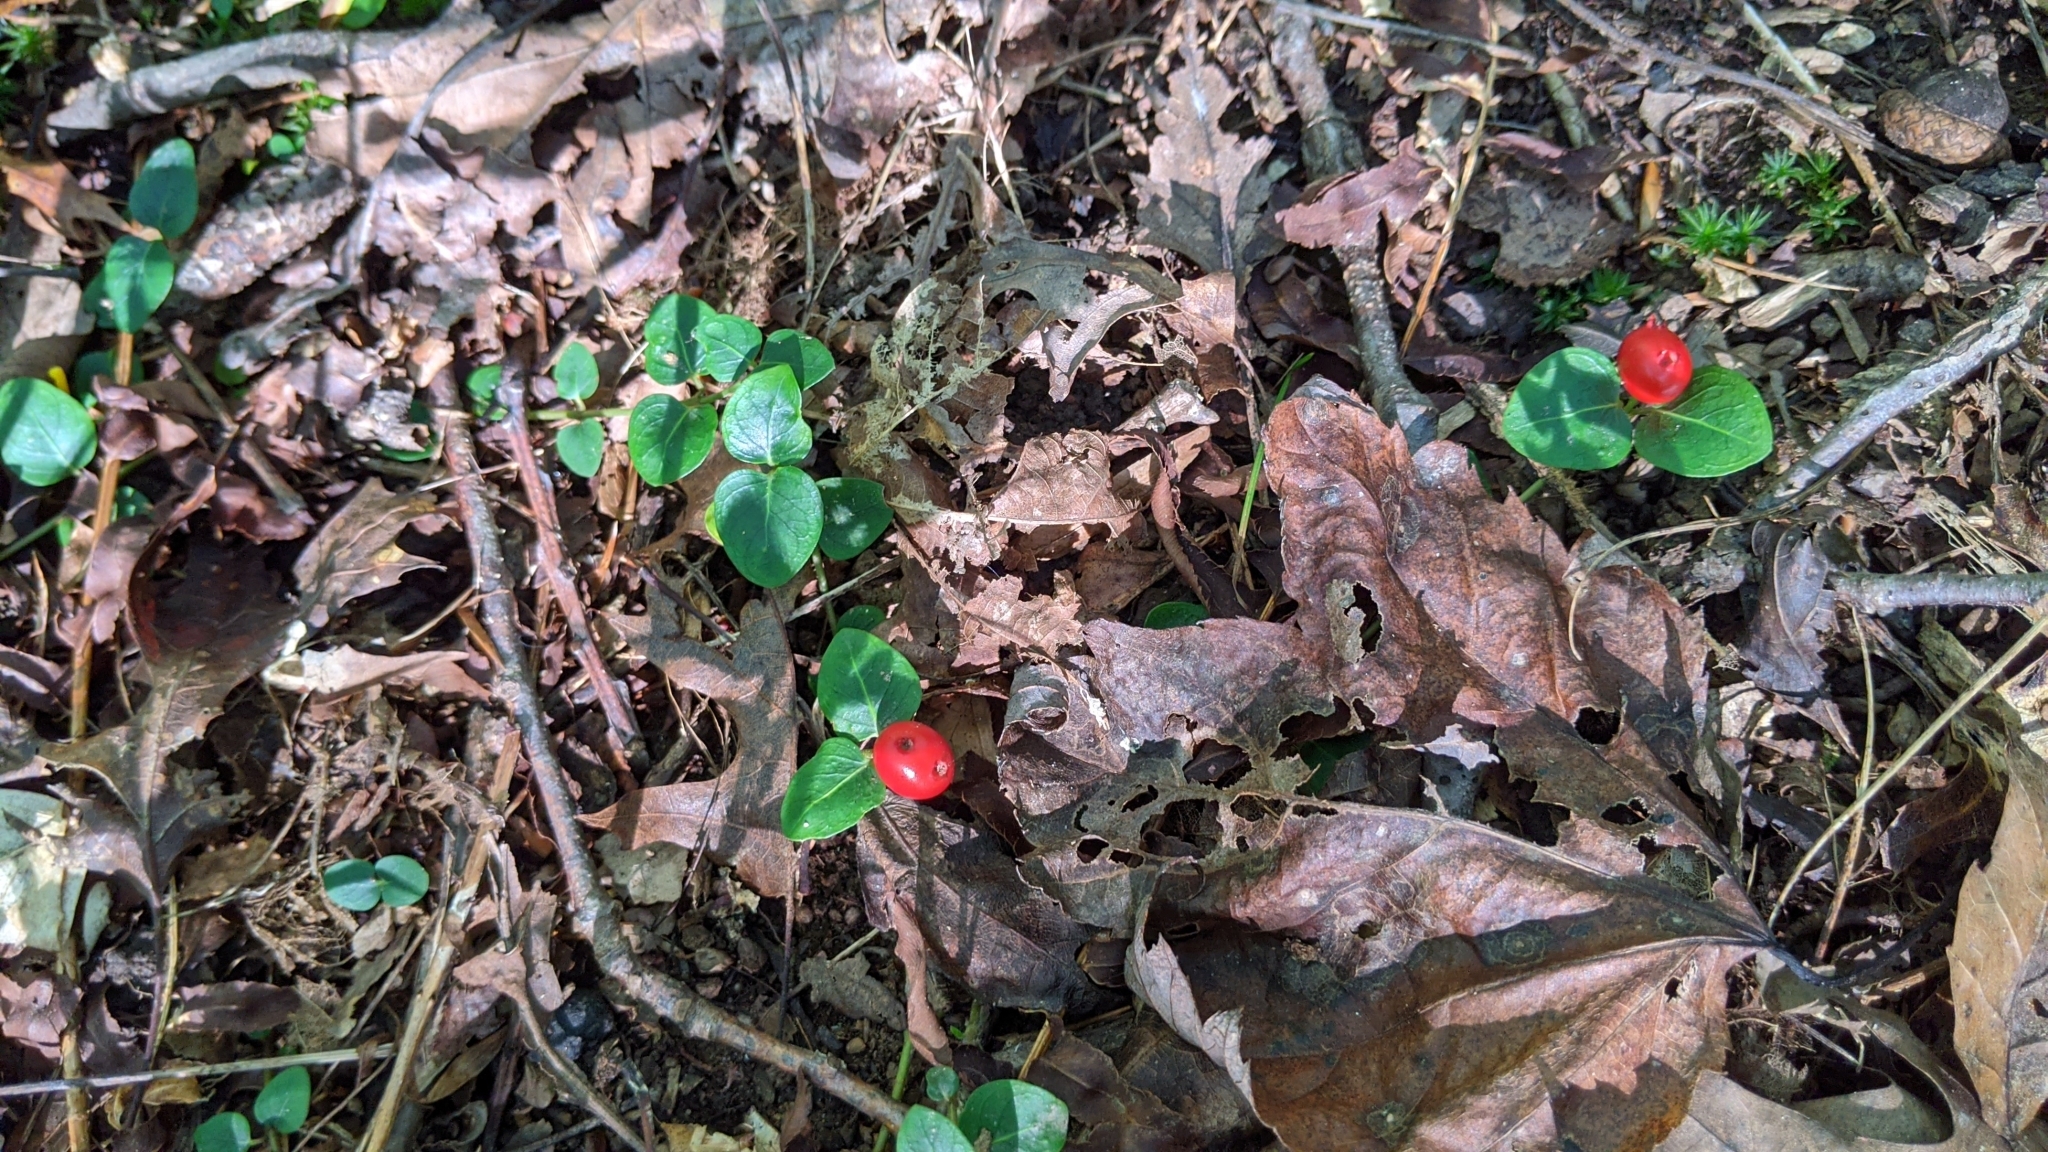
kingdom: Plantae
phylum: Tracheophyta
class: Magnoliopsida
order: Gentianales
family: Rubiaceae
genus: Mitchella
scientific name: Mitchella repens
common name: Partridge-berry
